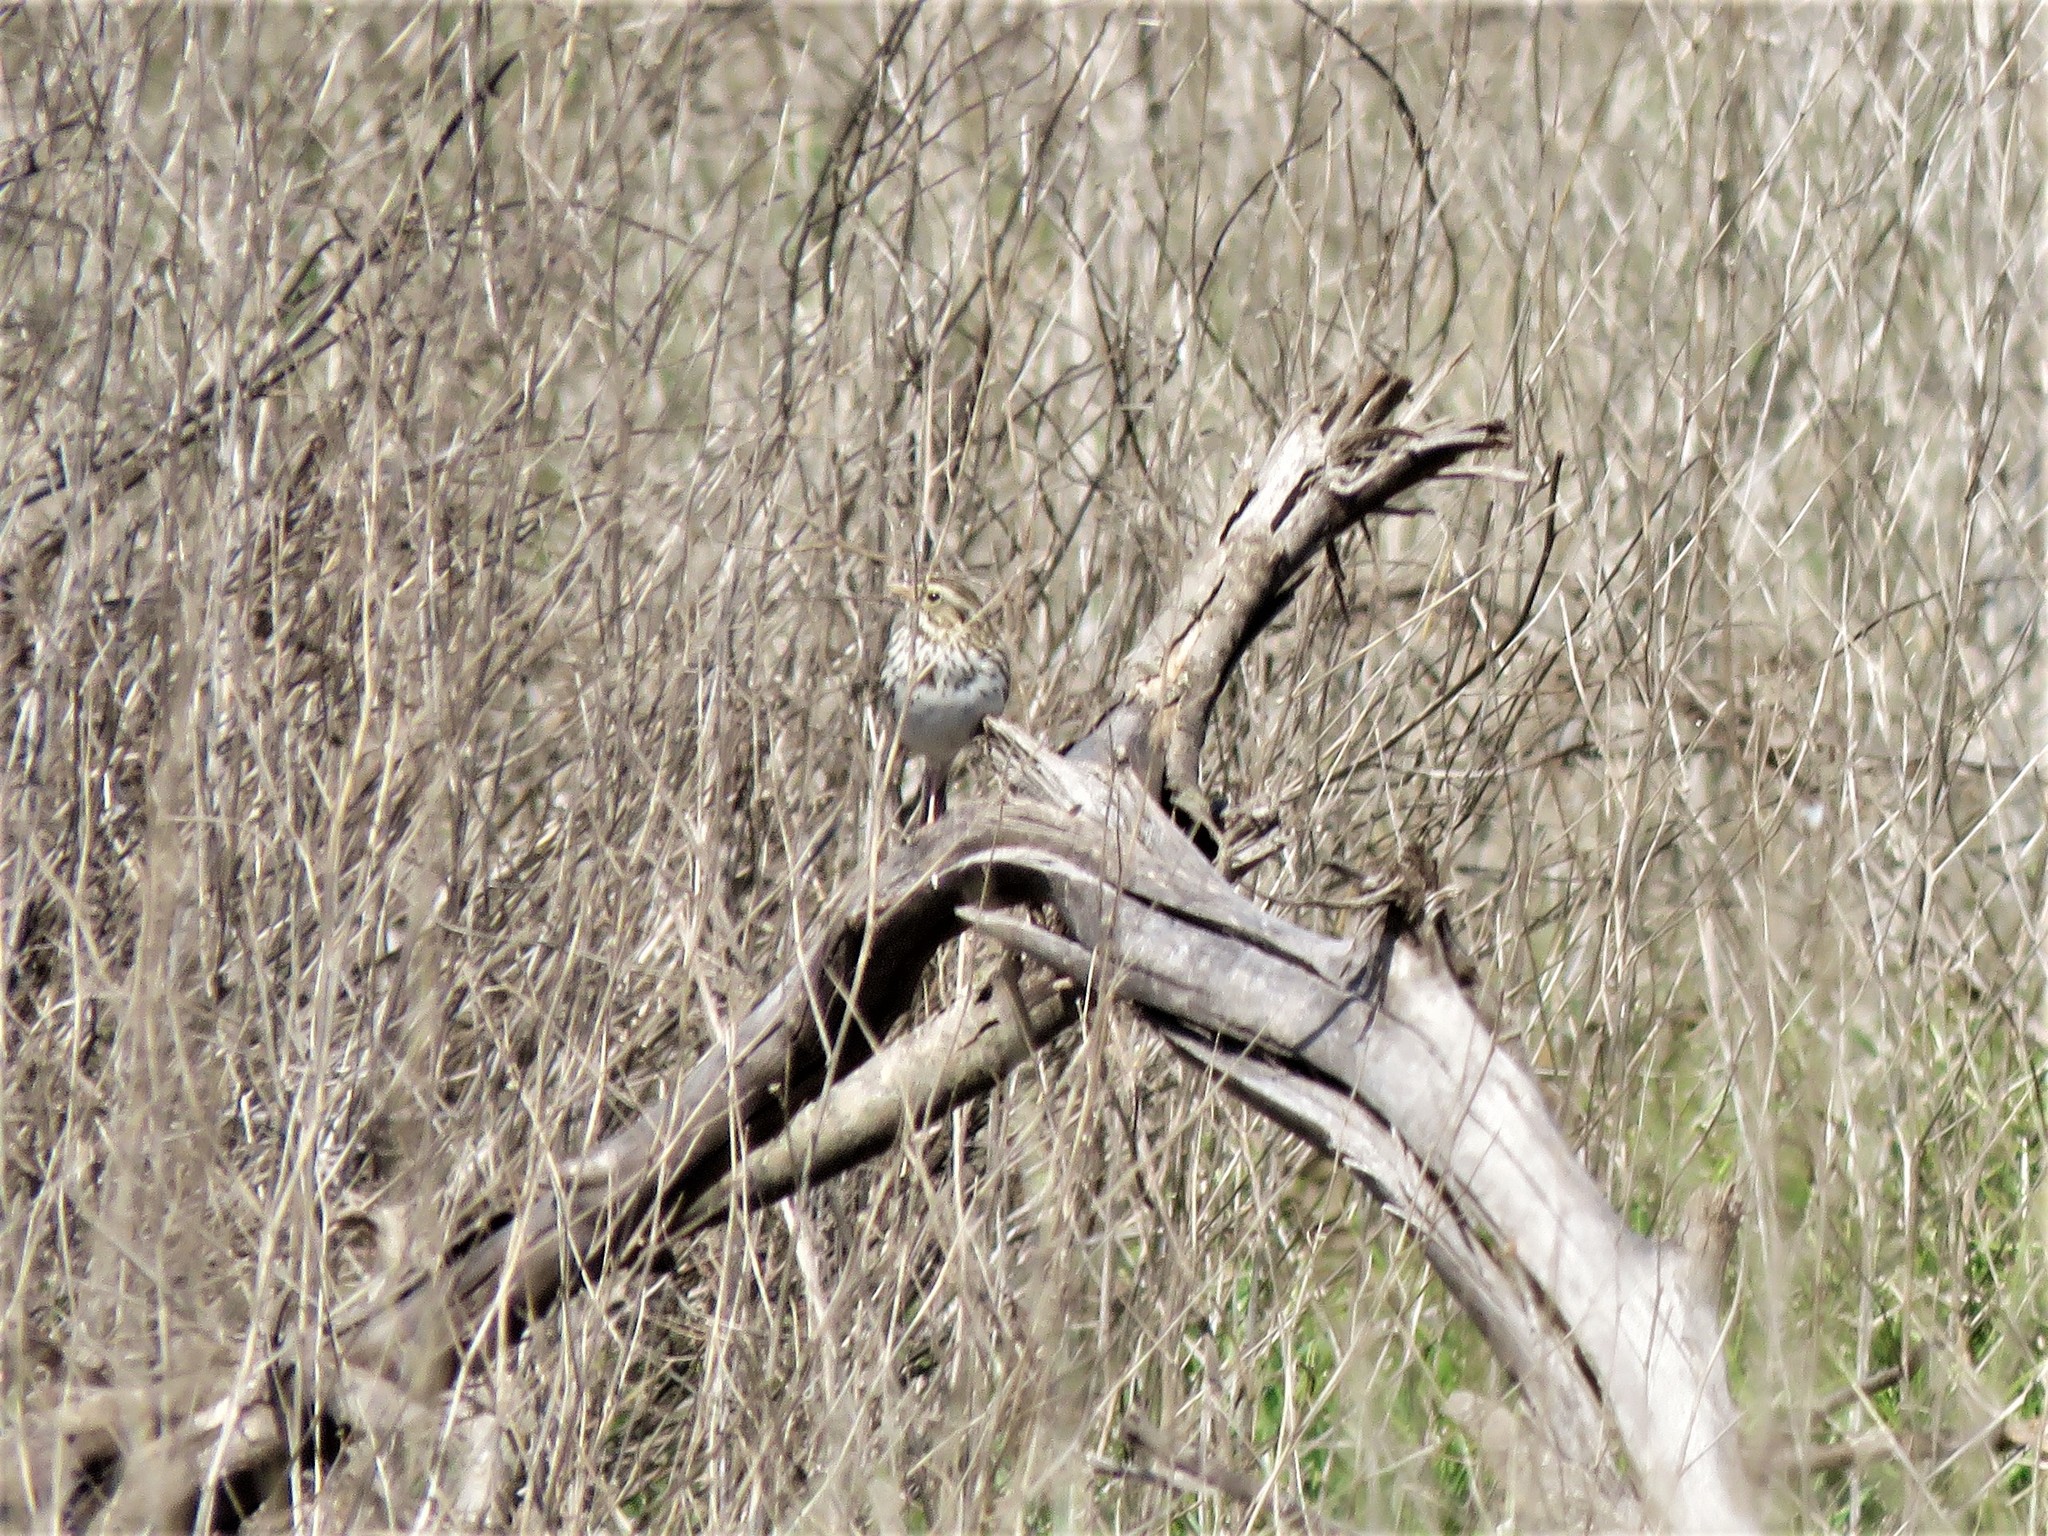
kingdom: Animalia
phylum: Chordata
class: Aves
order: Passeriformes
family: Passerellidae
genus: Passerculus
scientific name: Passerculus sandwichensis
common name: Savannah sparrow
